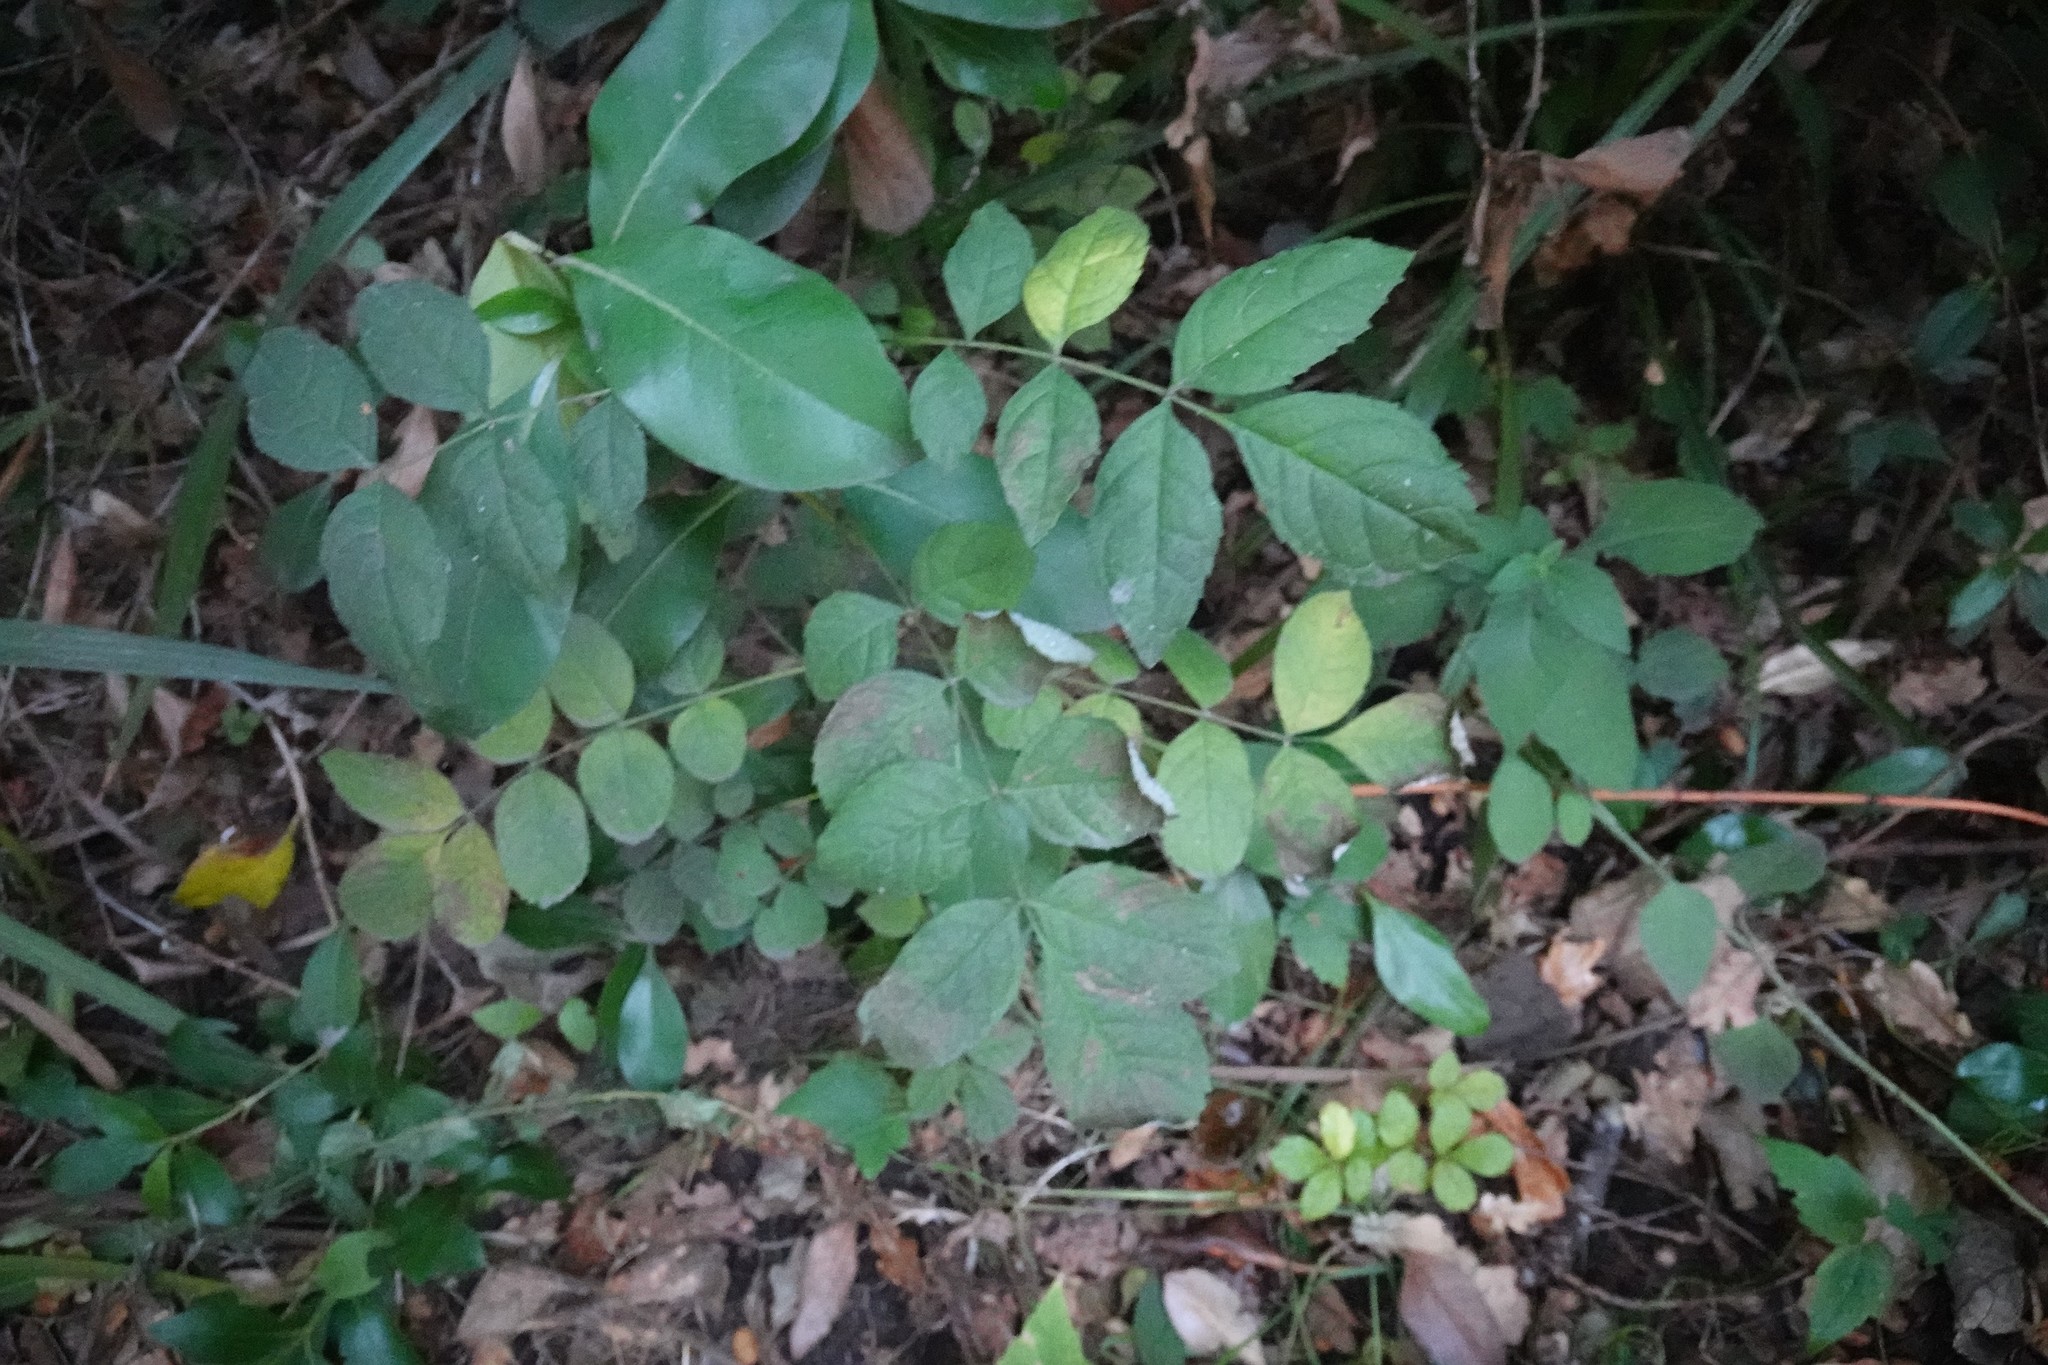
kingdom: Plantae
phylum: Tracheophyta
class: Magnoliopsida
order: Lamiales
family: Oleaceae
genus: Fraxinus
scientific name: Fraxinus excelsior
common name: European ash
